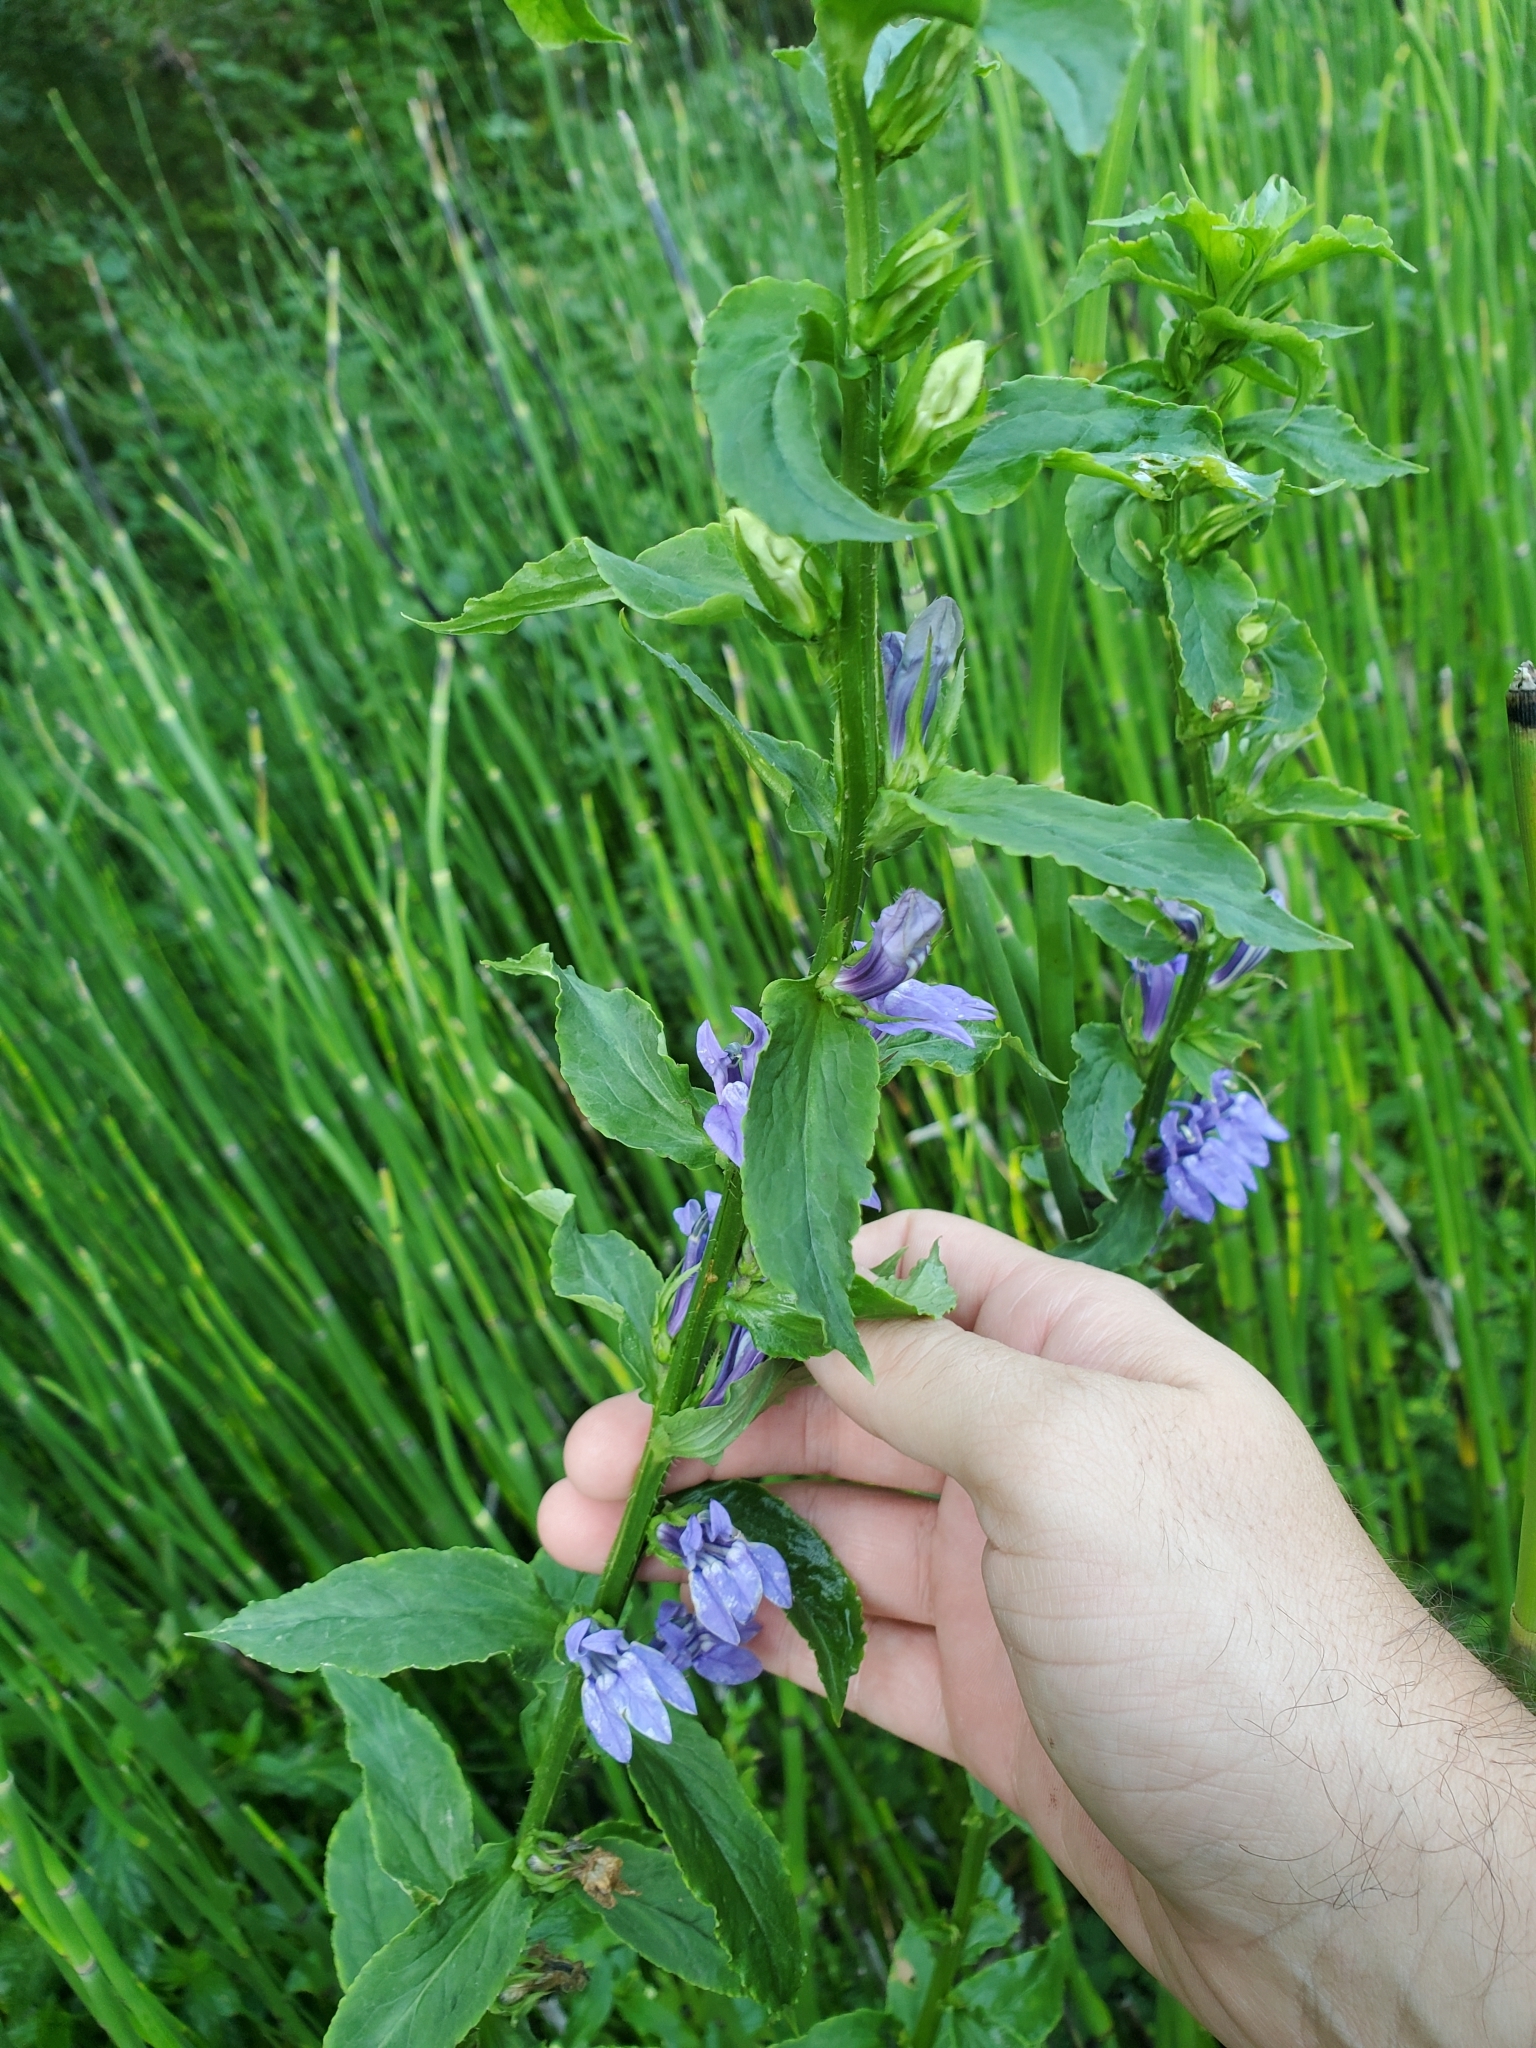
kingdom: Plantae
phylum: Tracheophyta
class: Magnoliopsida
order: Asterales
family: Campanulaceae
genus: Lobelia
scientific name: Lobelia siphilitica
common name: Great lobelia
